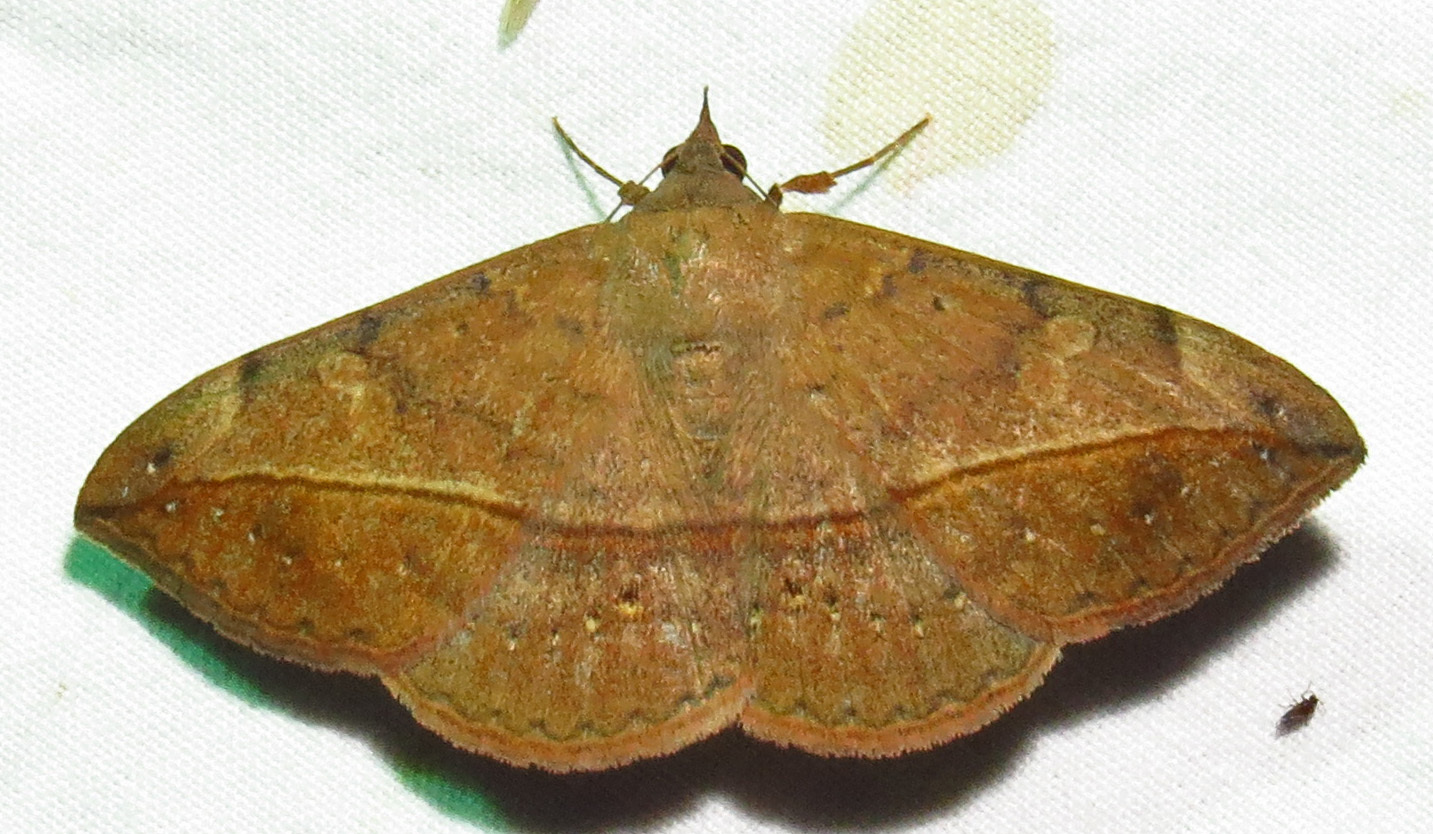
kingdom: Animalia
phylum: Arthropoda
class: Insecta
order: Lepidoptera
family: Erebidae
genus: Anticarsia
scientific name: Anticarsia gemmatalis
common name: Cutworm moth
